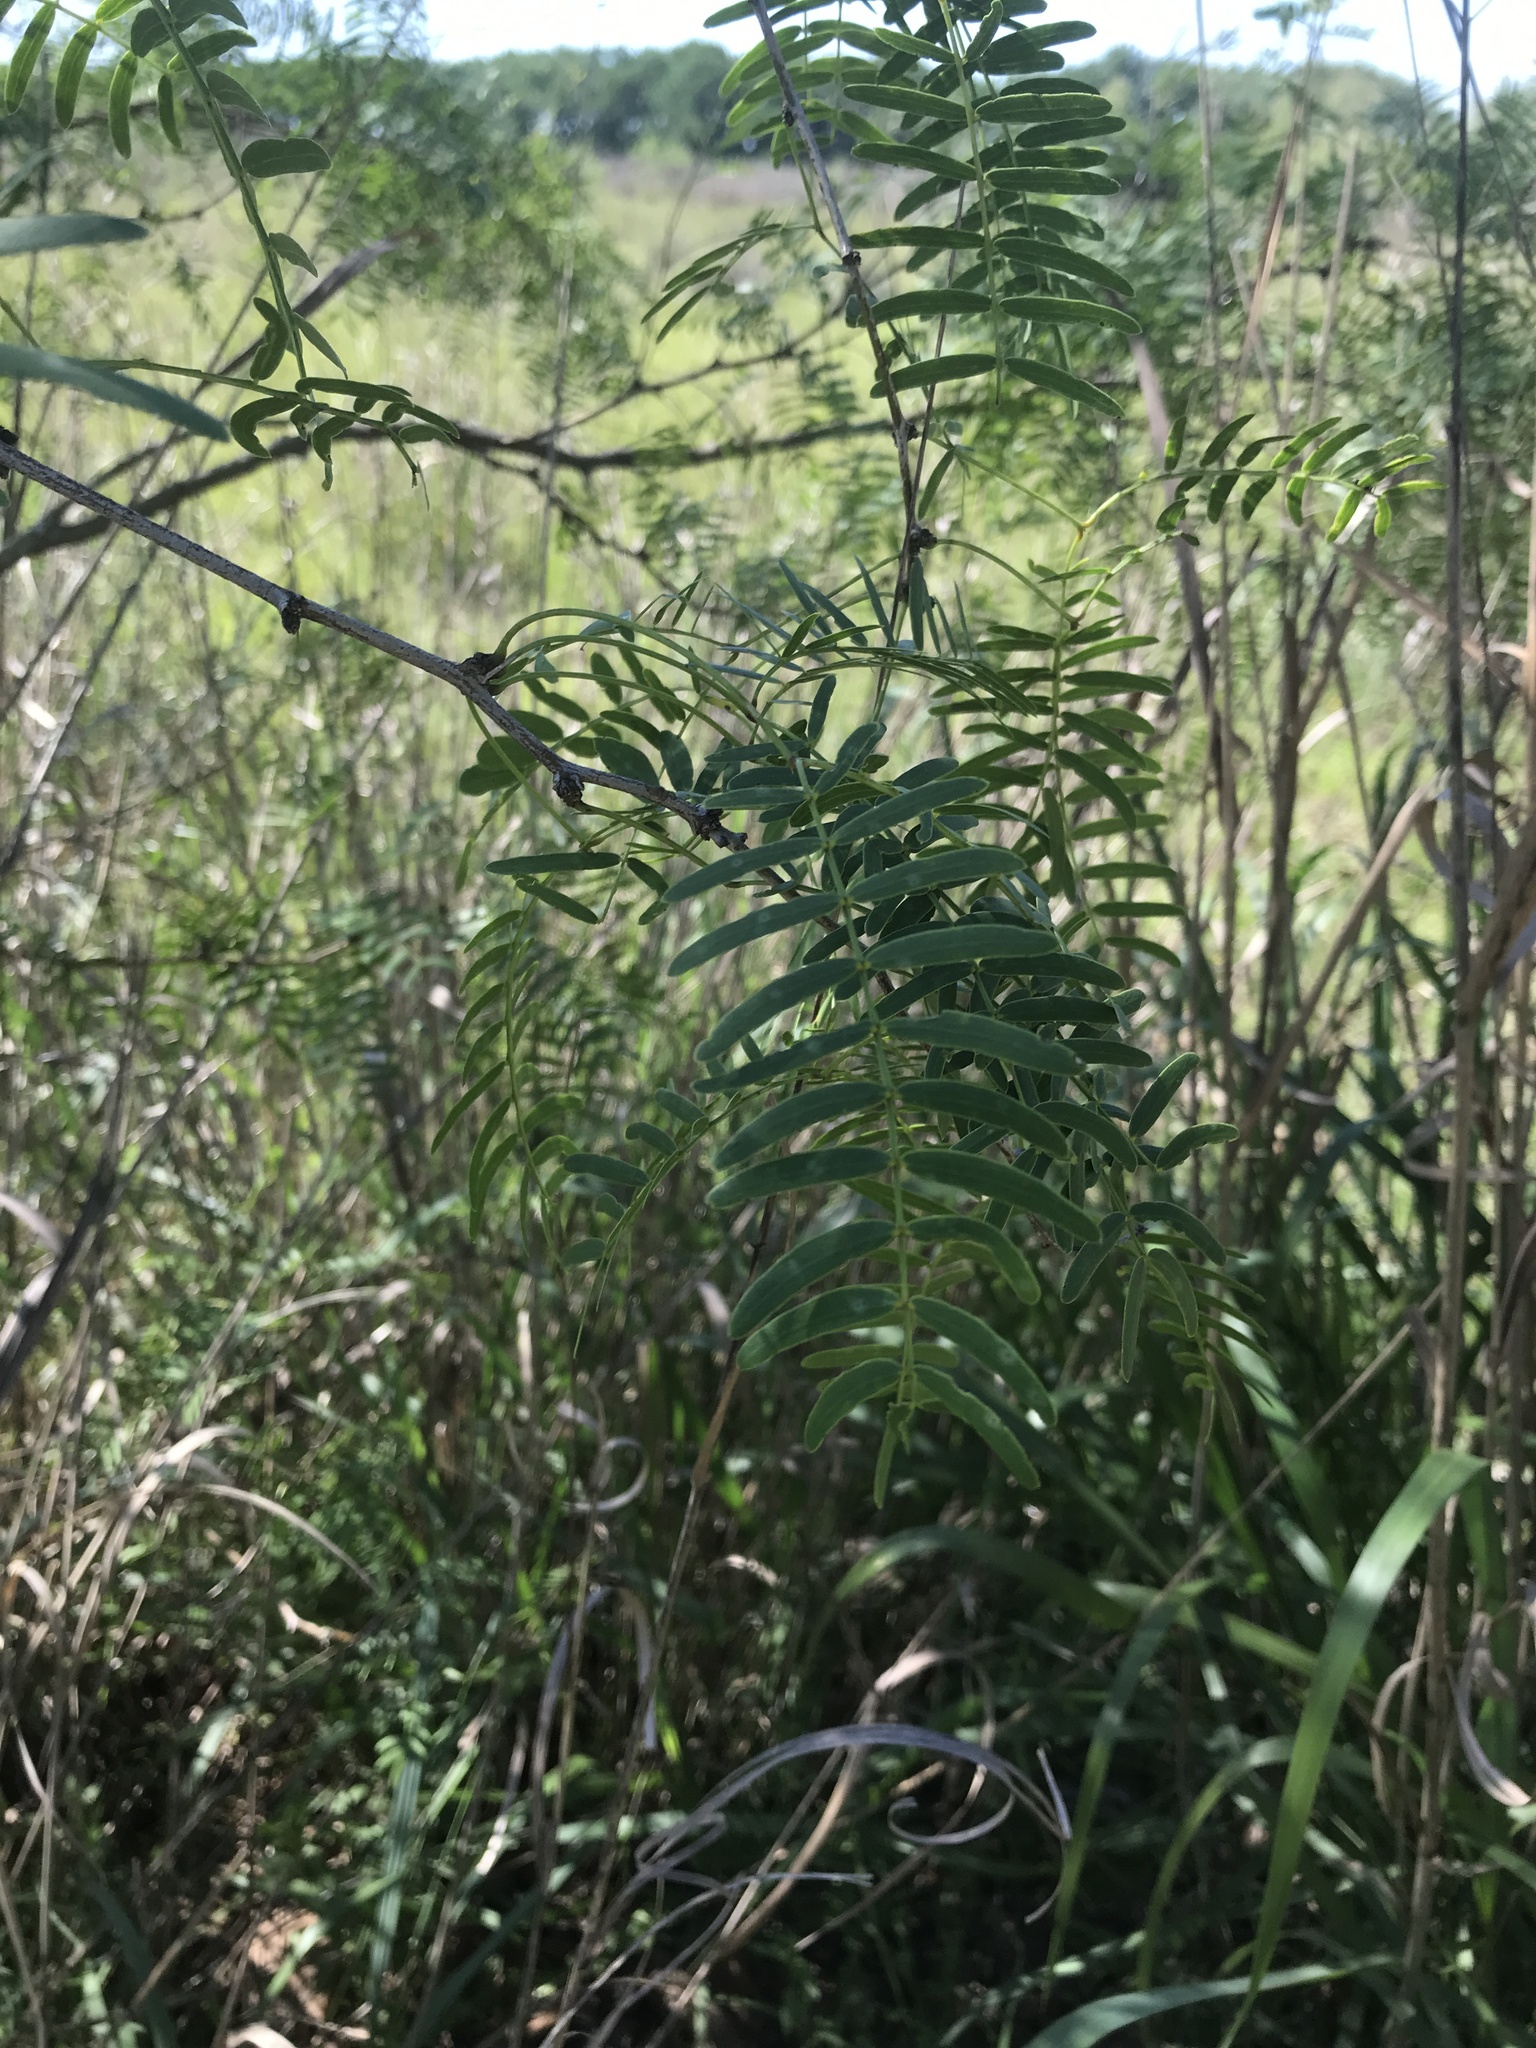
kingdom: Plantae
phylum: Tracheophyta
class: Magnoliopsida
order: Fabales
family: Fabaceae
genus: Prosopis
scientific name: Prosopis glandulosa
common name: Honey mesquite
